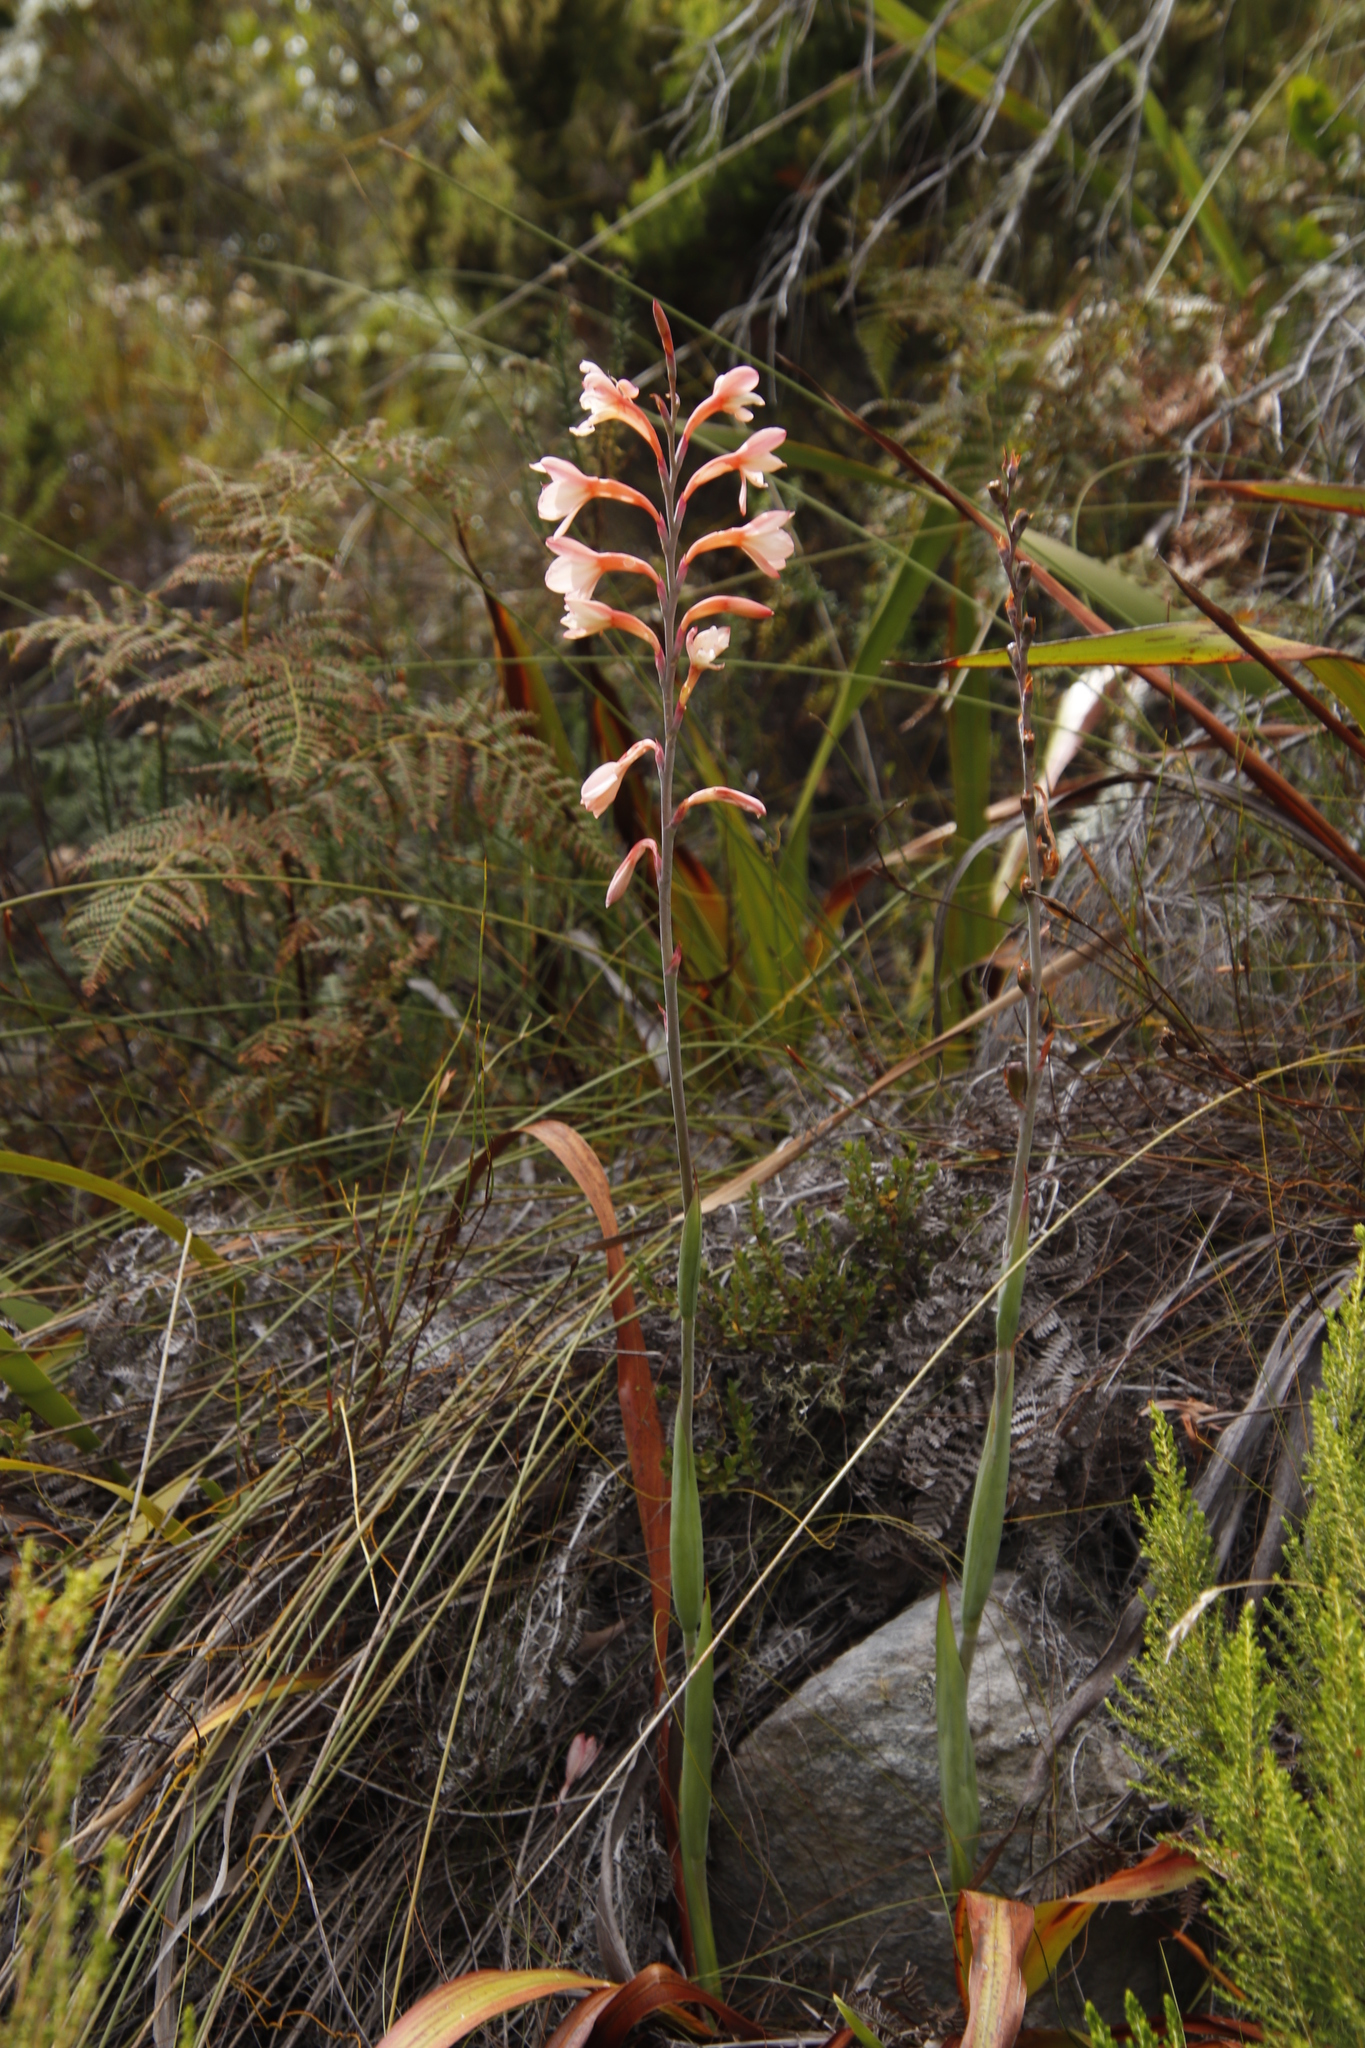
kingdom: Plantae
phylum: Tracheophyta
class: Liliopsida
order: Asparagales
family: Iridaceae
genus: Watsonia
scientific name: Watsonia tabularis
